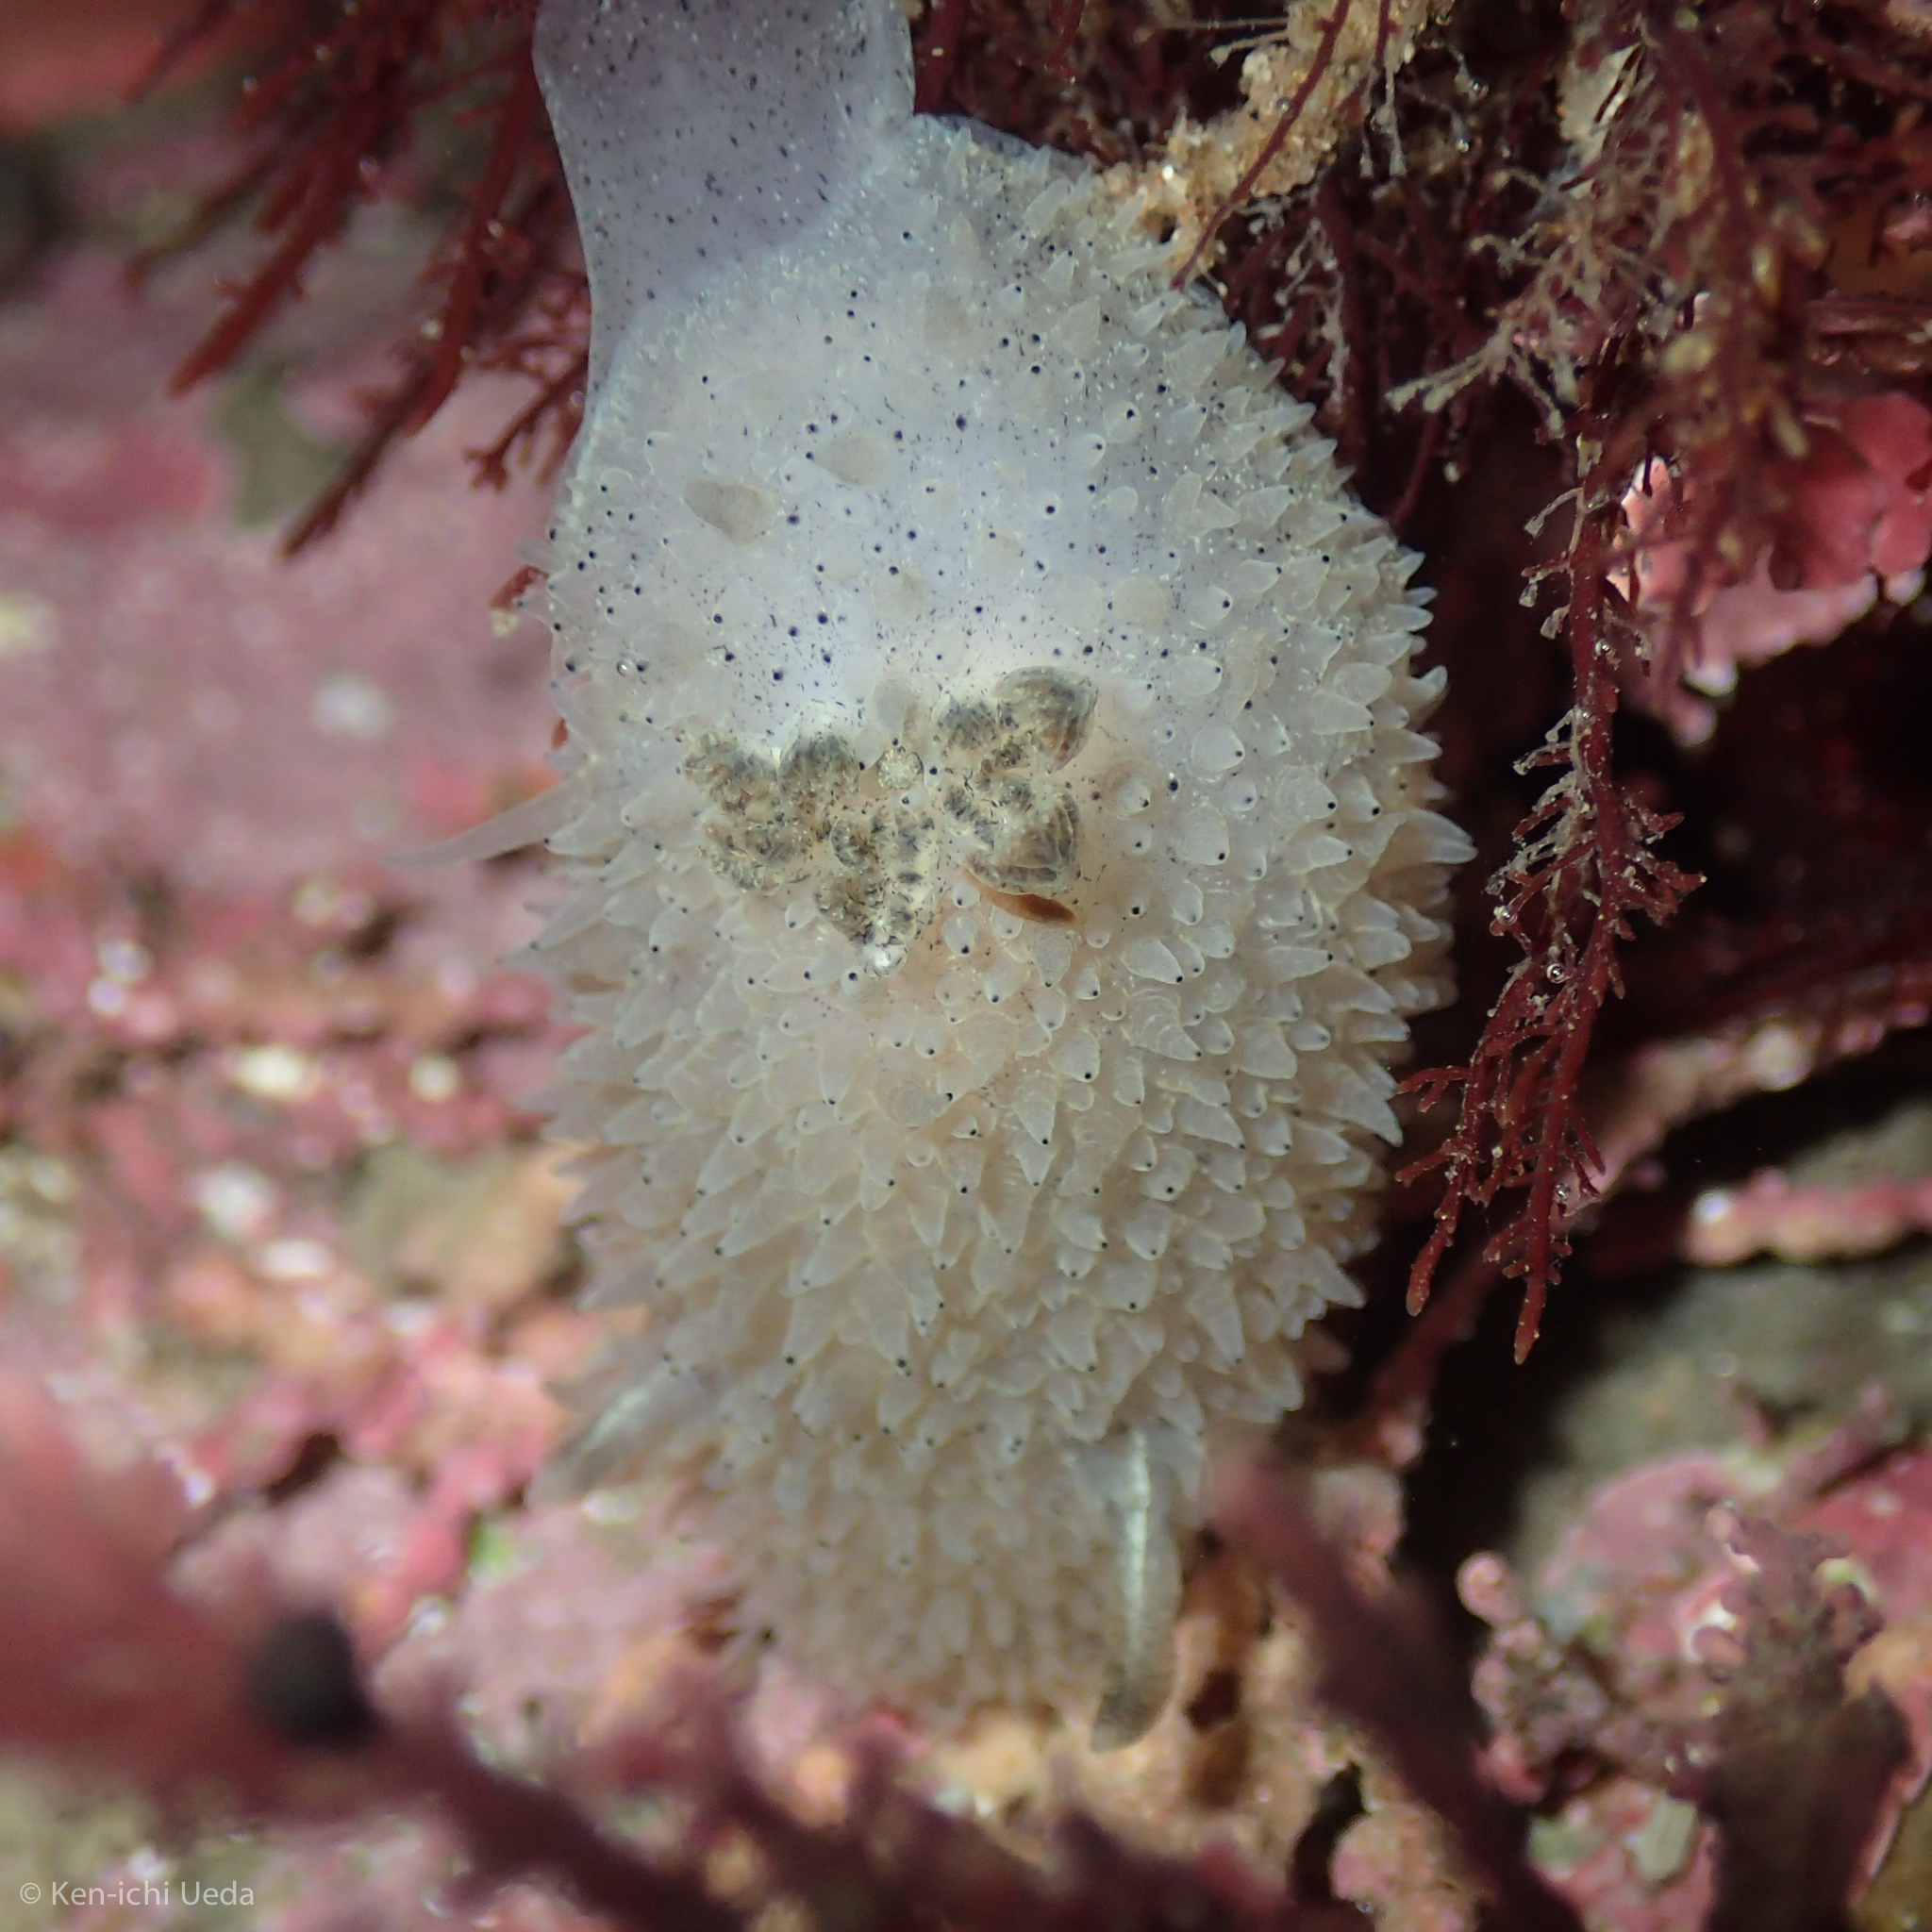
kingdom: Animalia
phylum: Mollusca
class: Gastropoda
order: Nudibranchia
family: Onchidorididae
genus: Acanthodoris
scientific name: Acanthodoris rhodoceras
